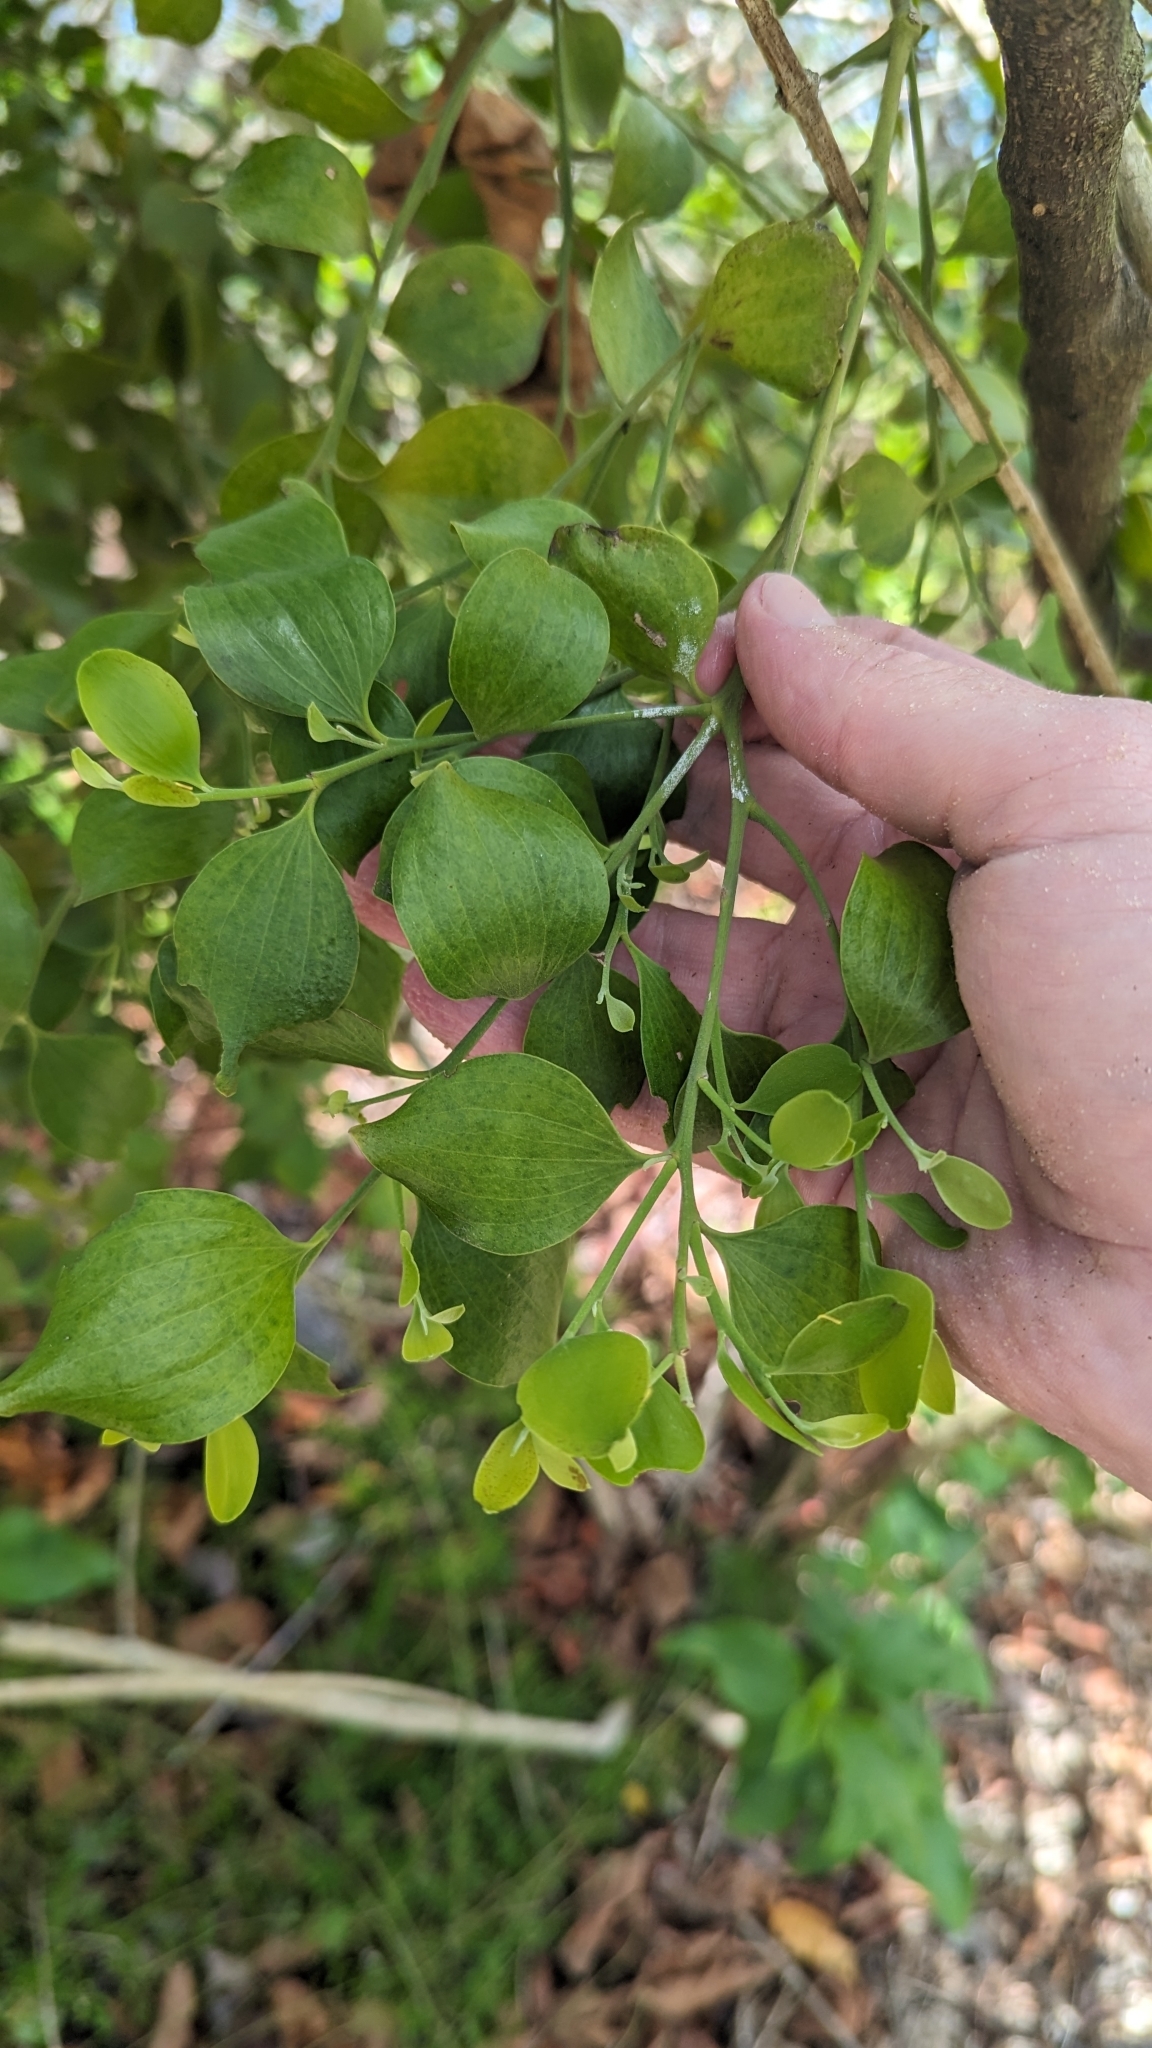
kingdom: Plantae
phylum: Tracheophyta
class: Magnoliopsida
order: Santalales
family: Santalaceae
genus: Exocarpos
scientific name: Exocarpos latifolius
